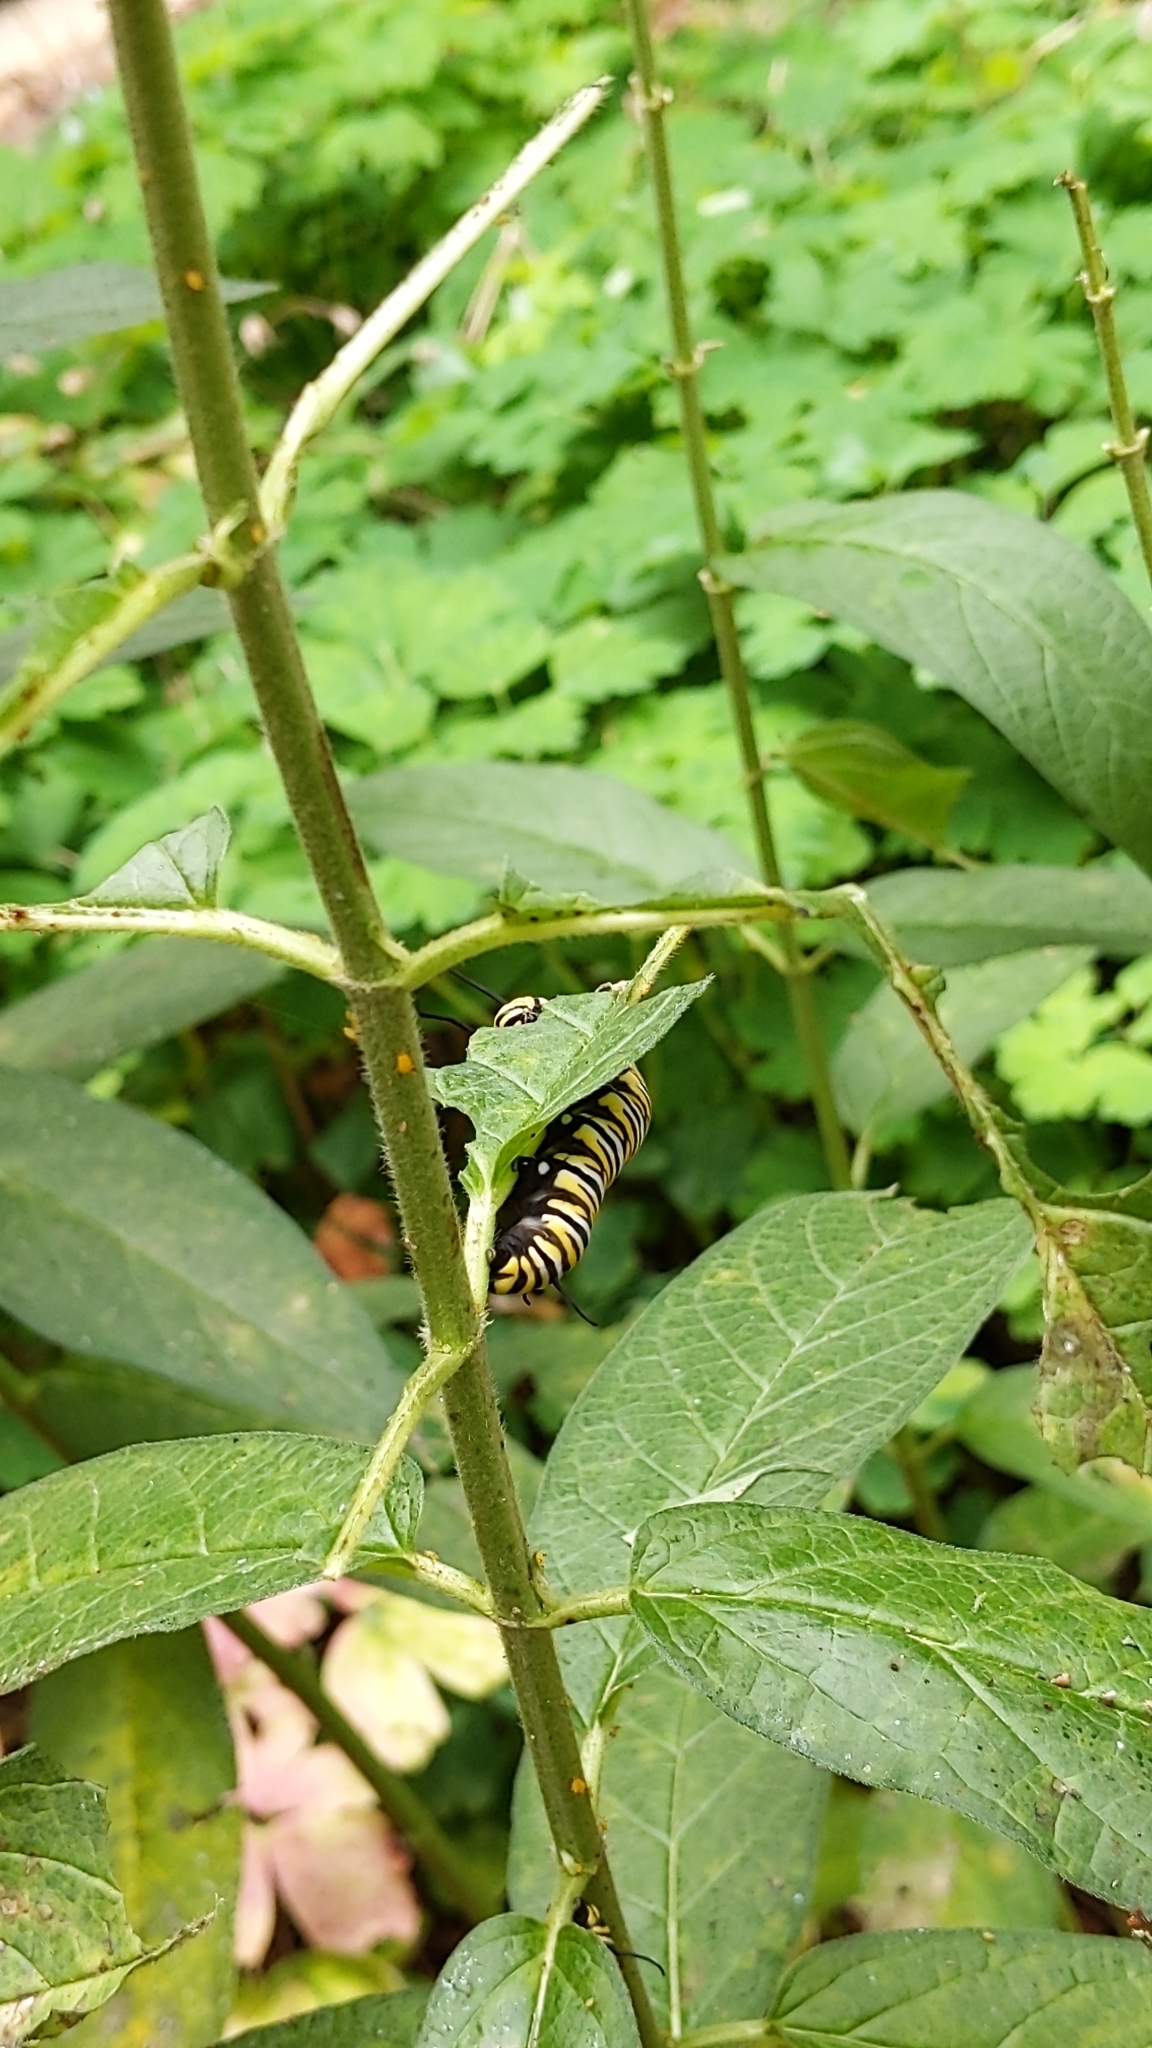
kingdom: Animalia
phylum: Arthropoda
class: Insecta
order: Lepidoptera
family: Nymphalidae
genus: Danaus
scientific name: Danaus plexippus
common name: Monarch
